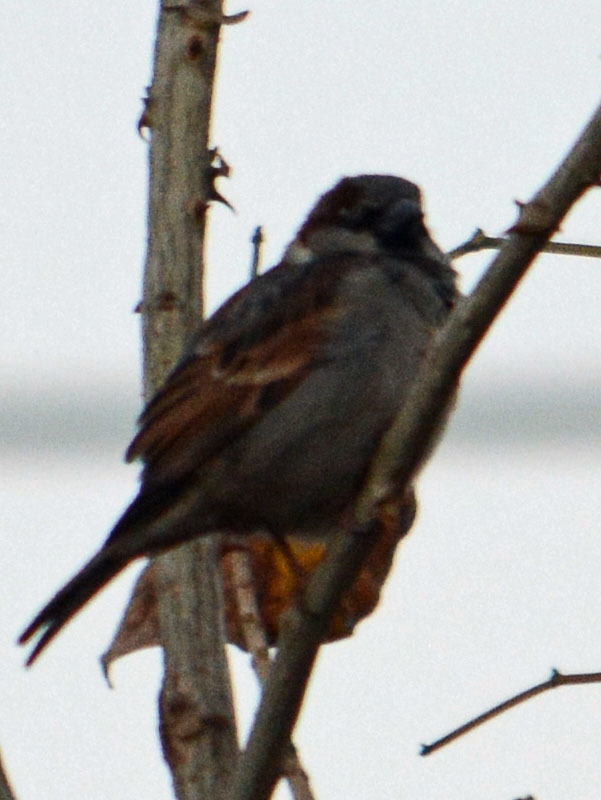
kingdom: Animalia
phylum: Chordata
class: Aves
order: Passeriformes
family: Passeridae
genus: Passer
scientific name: Passer domesticus
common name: House sparrow
